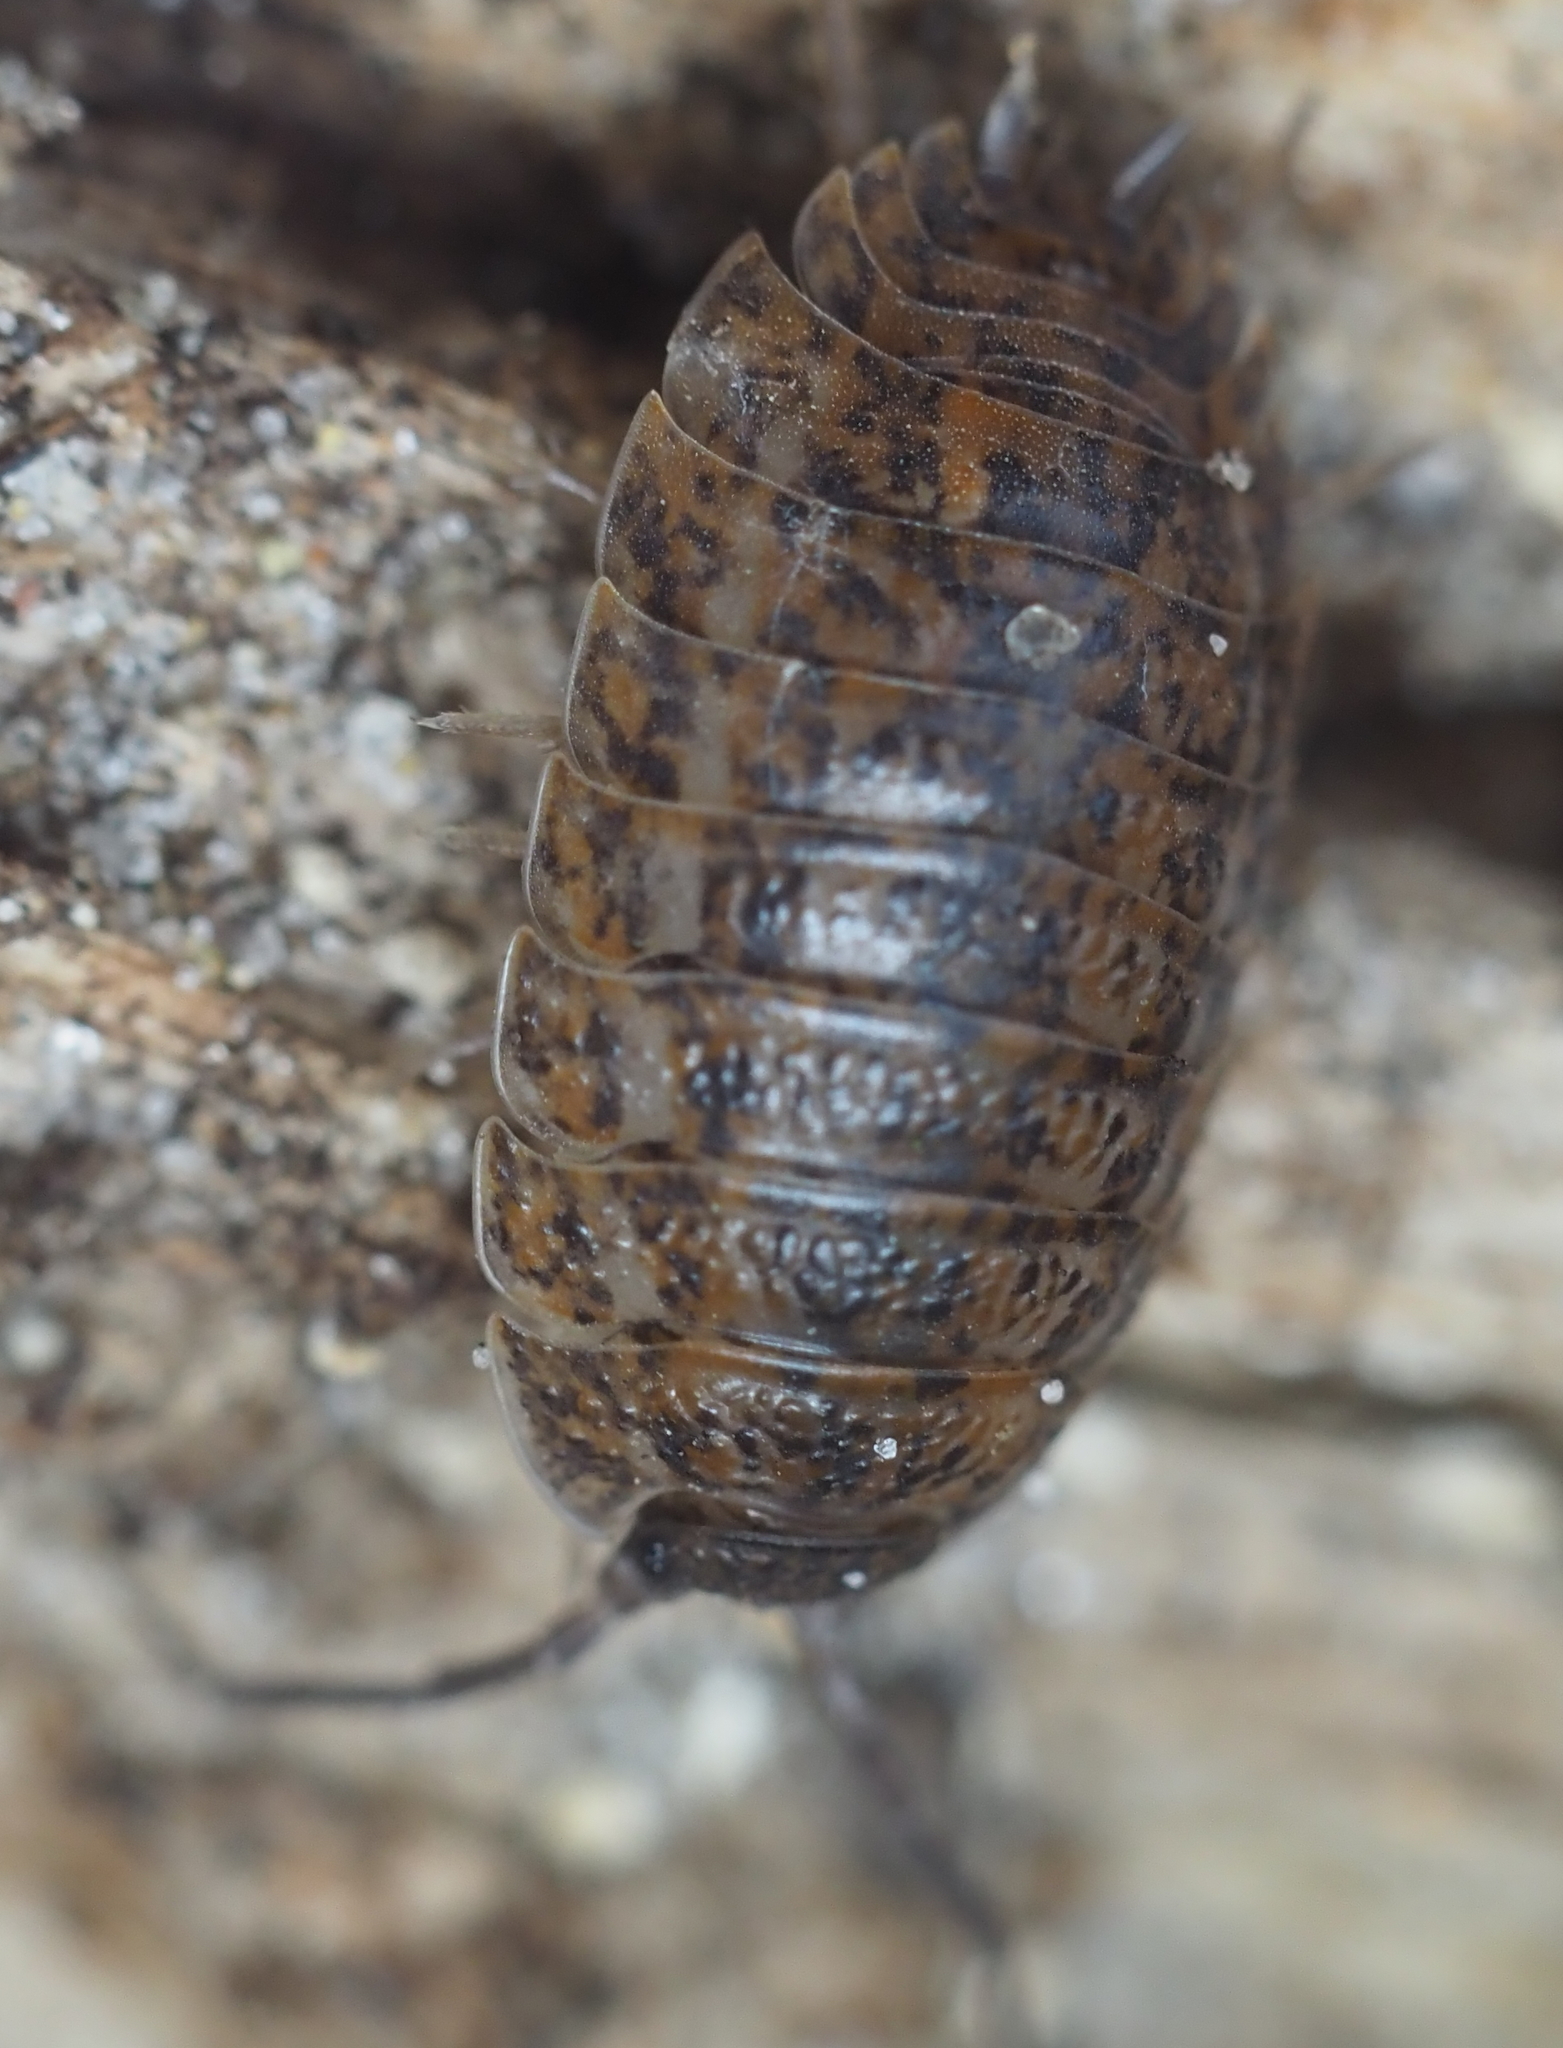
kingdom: Animalia
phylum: Arthropoda
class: Malacostraca
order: Isopoda
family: Trachelipodidae
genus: Trachelipus
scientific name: Trachelipus rathkii
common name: Isopod
